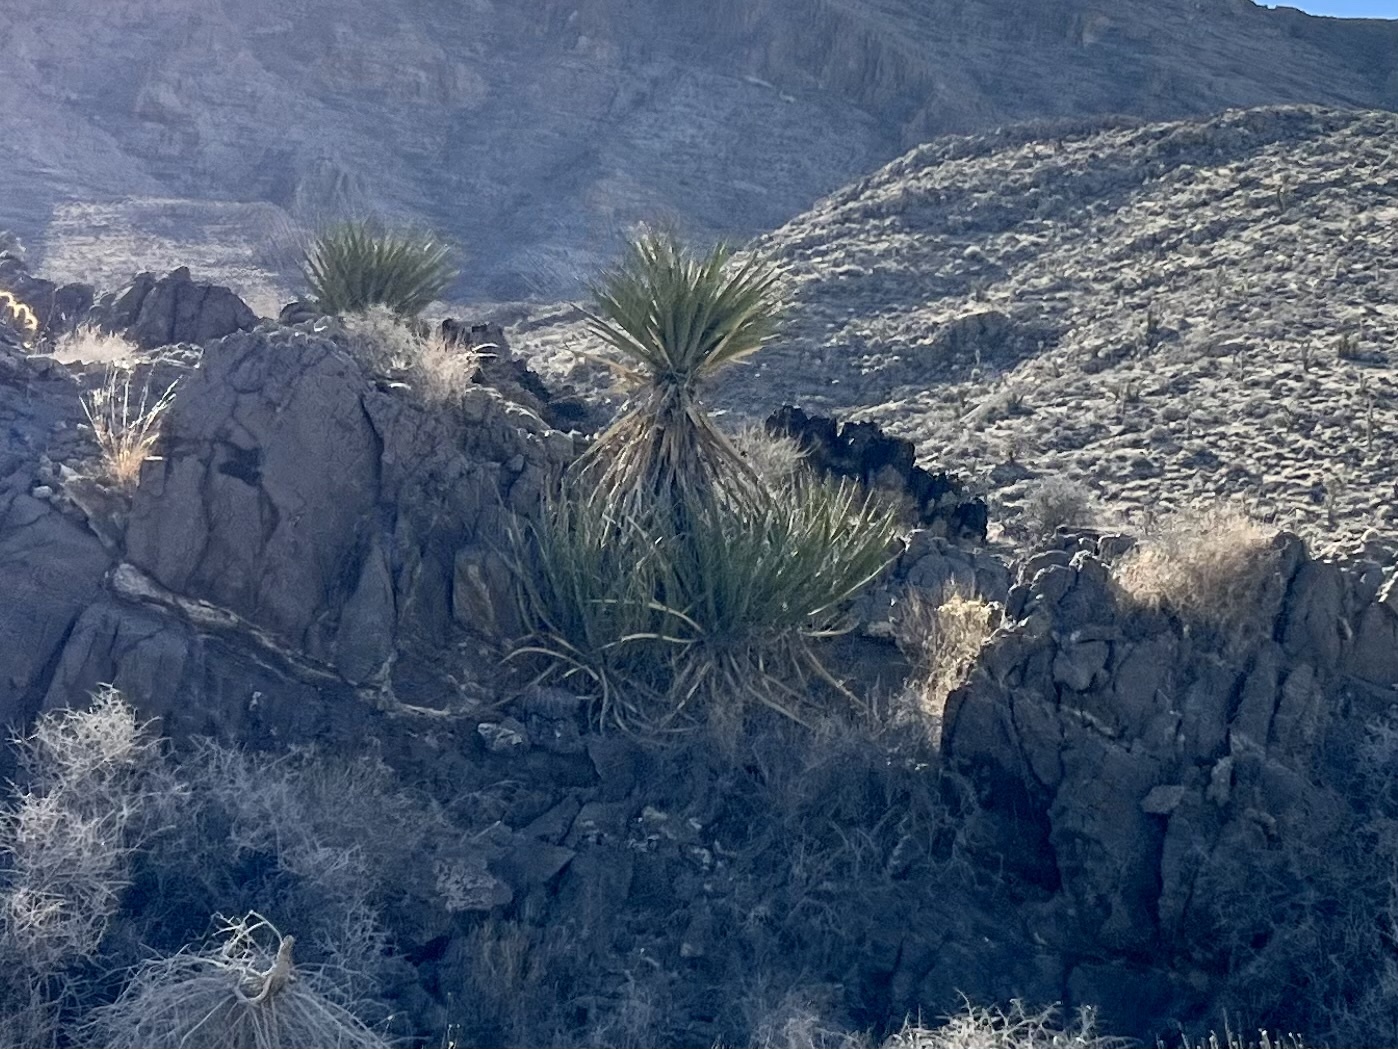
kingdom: Plantae
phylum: Tracheophyta
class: Liliopsida
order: Asparagales
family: Asparagaceae
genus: Yucca
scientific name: Yucca schidigera
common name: Mojave yucca
